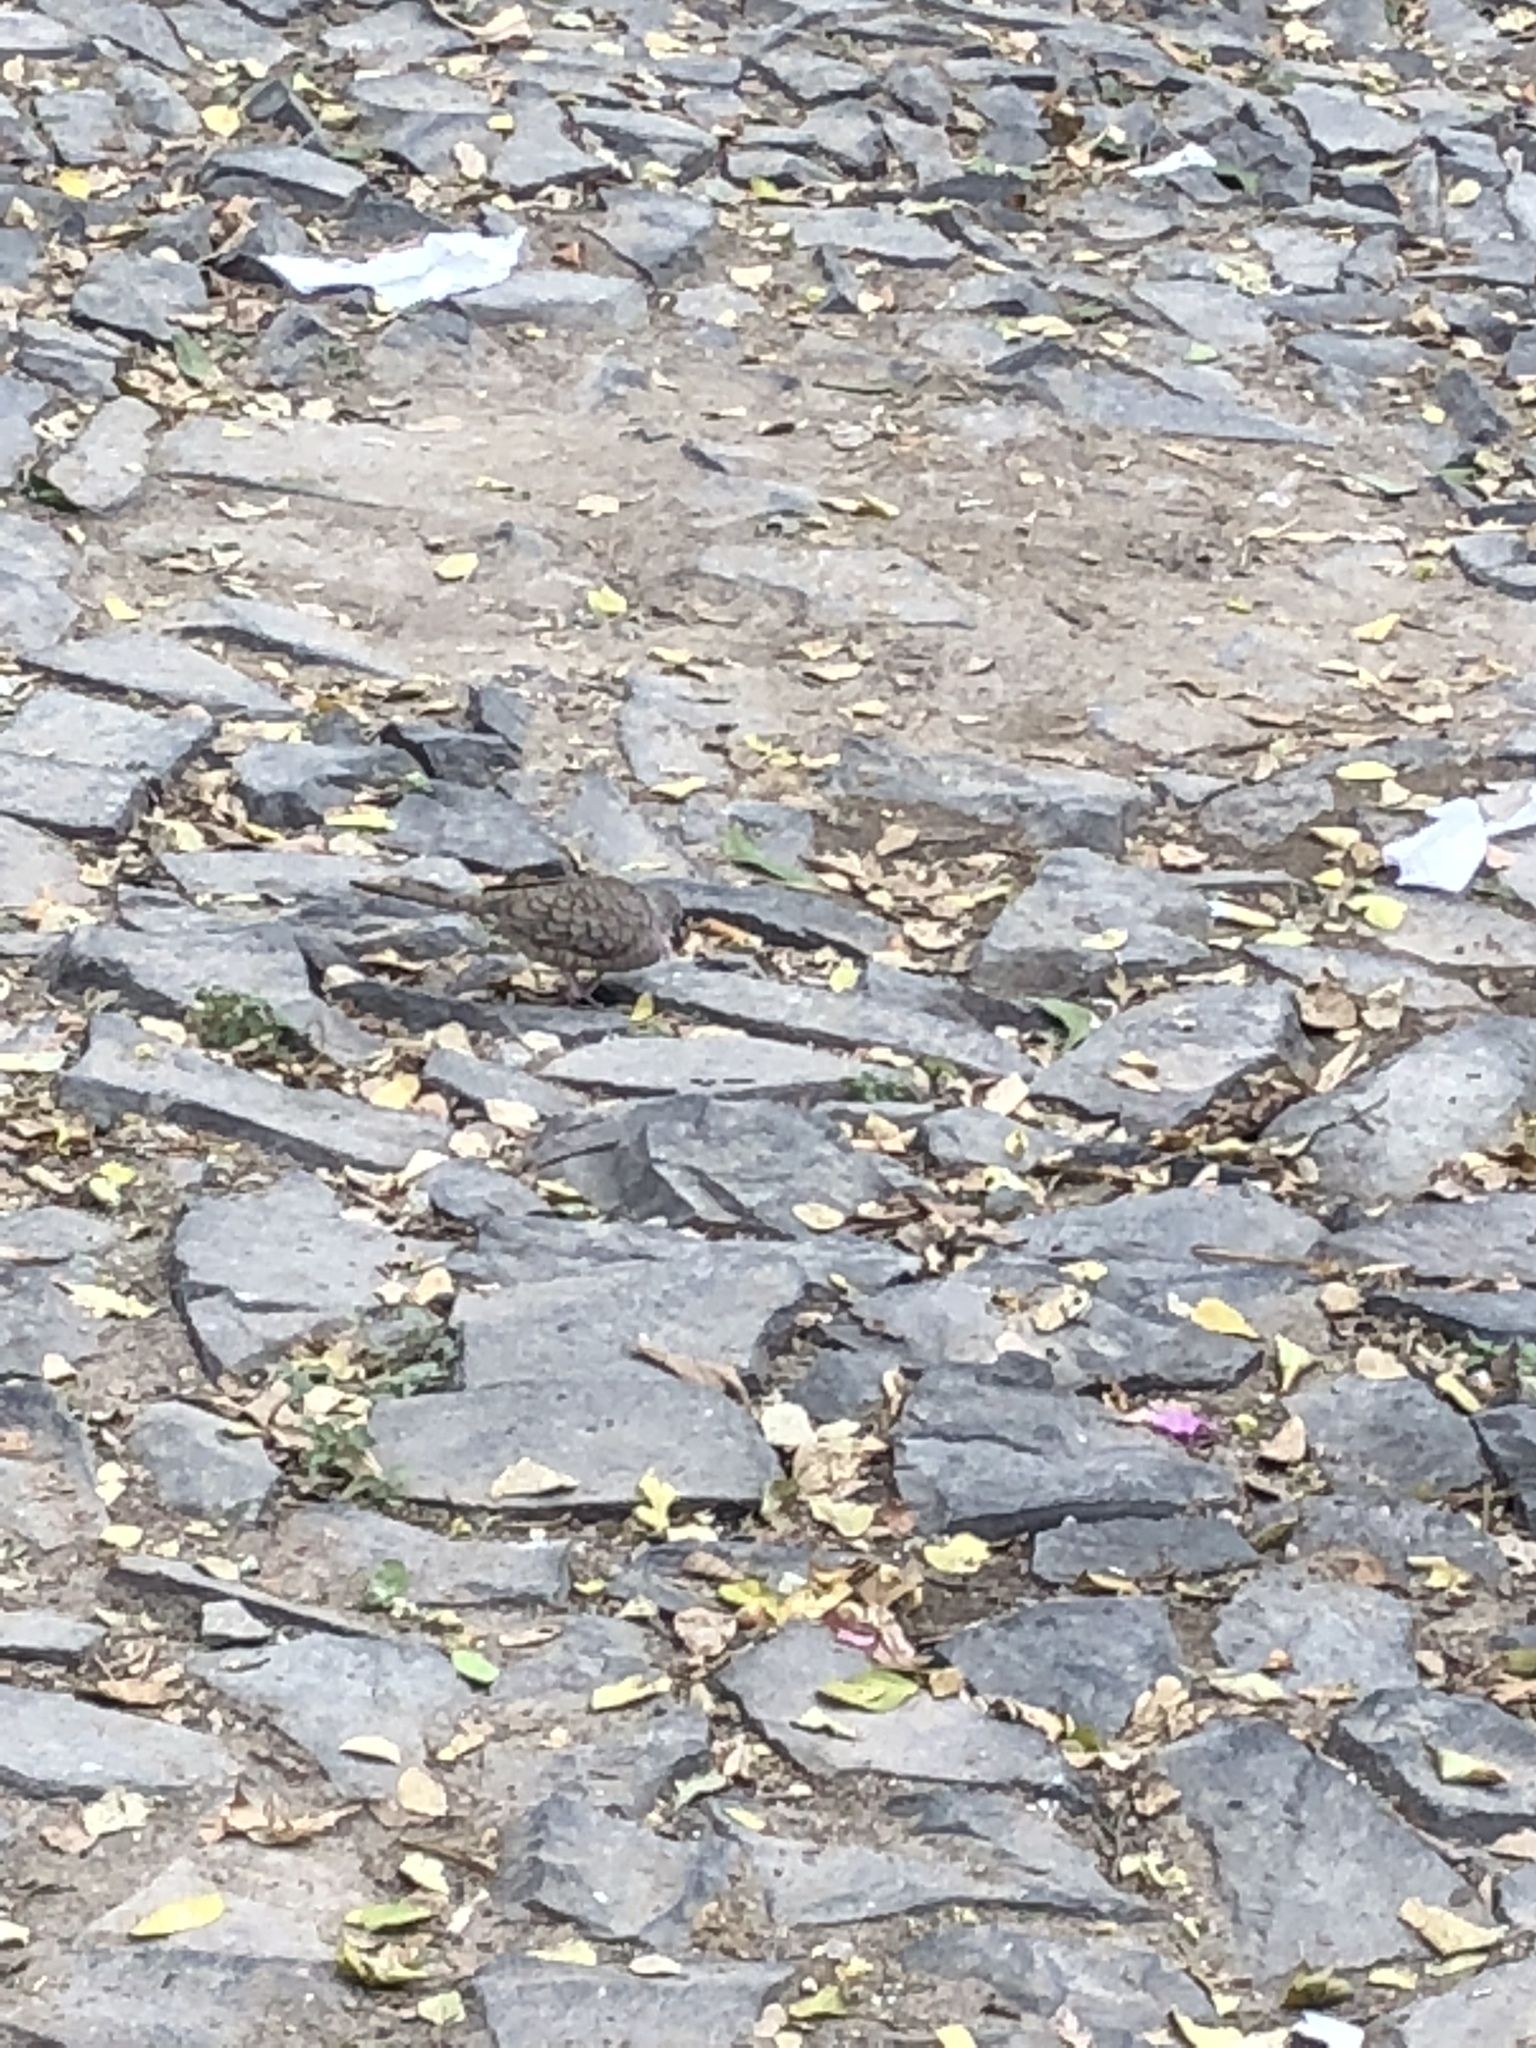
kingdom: Animalia
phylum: Chordata
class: Aves
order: Columbiformes
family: Columbidae
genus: Columbina
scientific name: Columbina inca
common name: Inca dove
